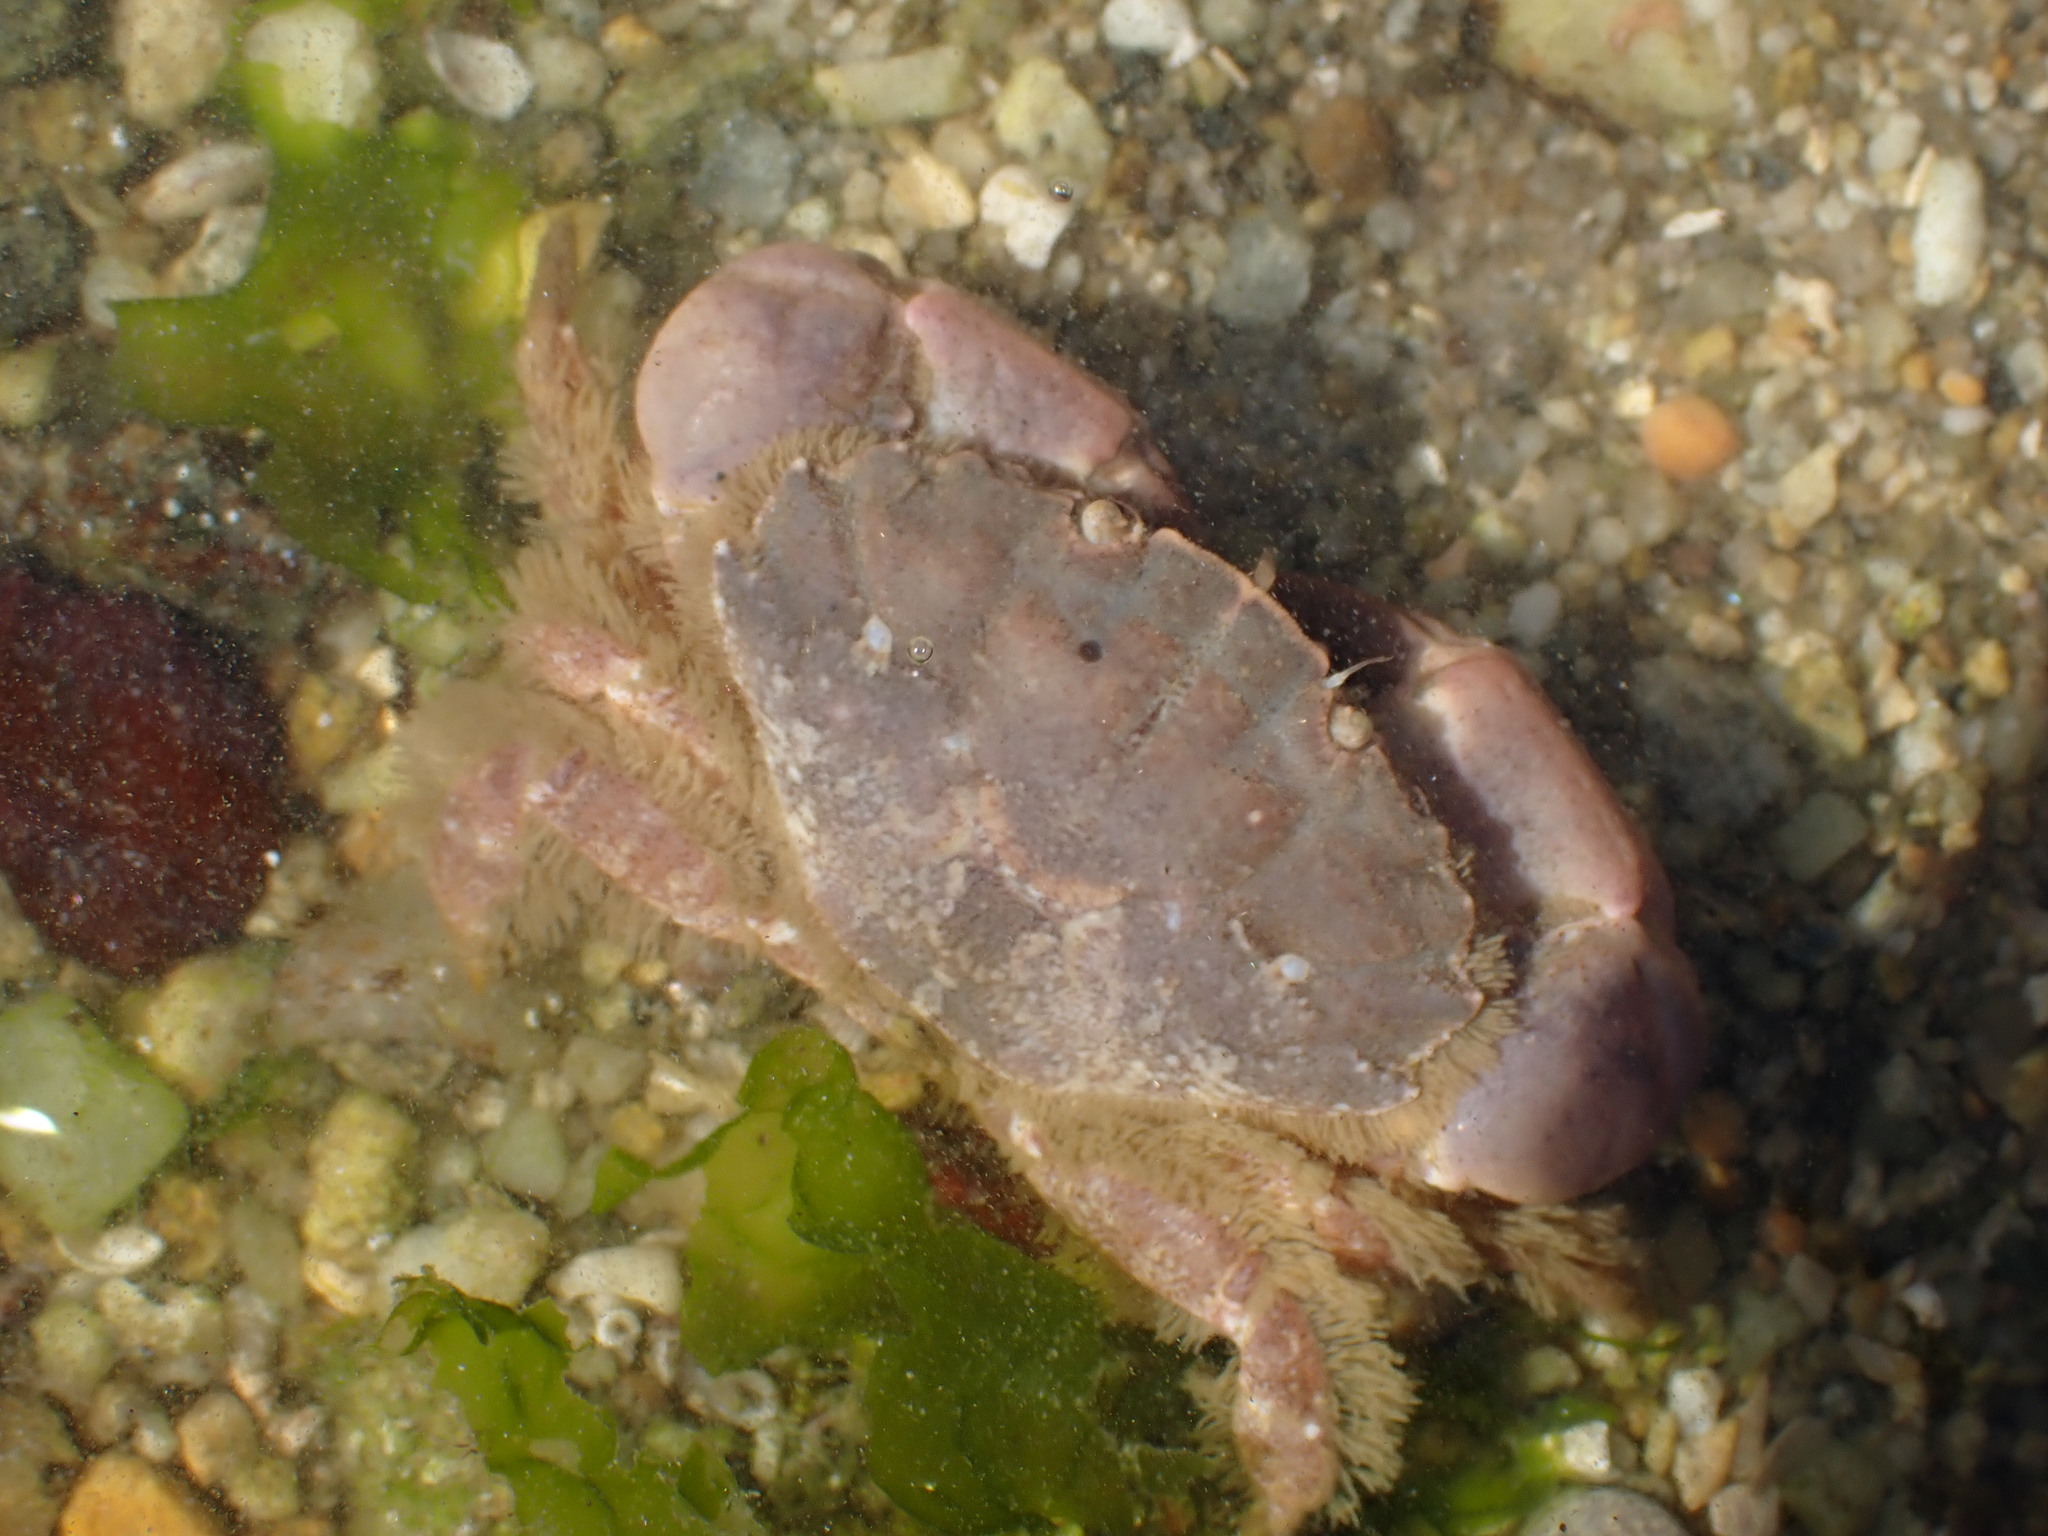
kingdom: Animalia
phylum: Arthropoda
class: Malacostraca
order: Decapoda
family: Xanthidae
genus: Xantho
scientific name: Xantho pilipes
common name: Risso's crab
